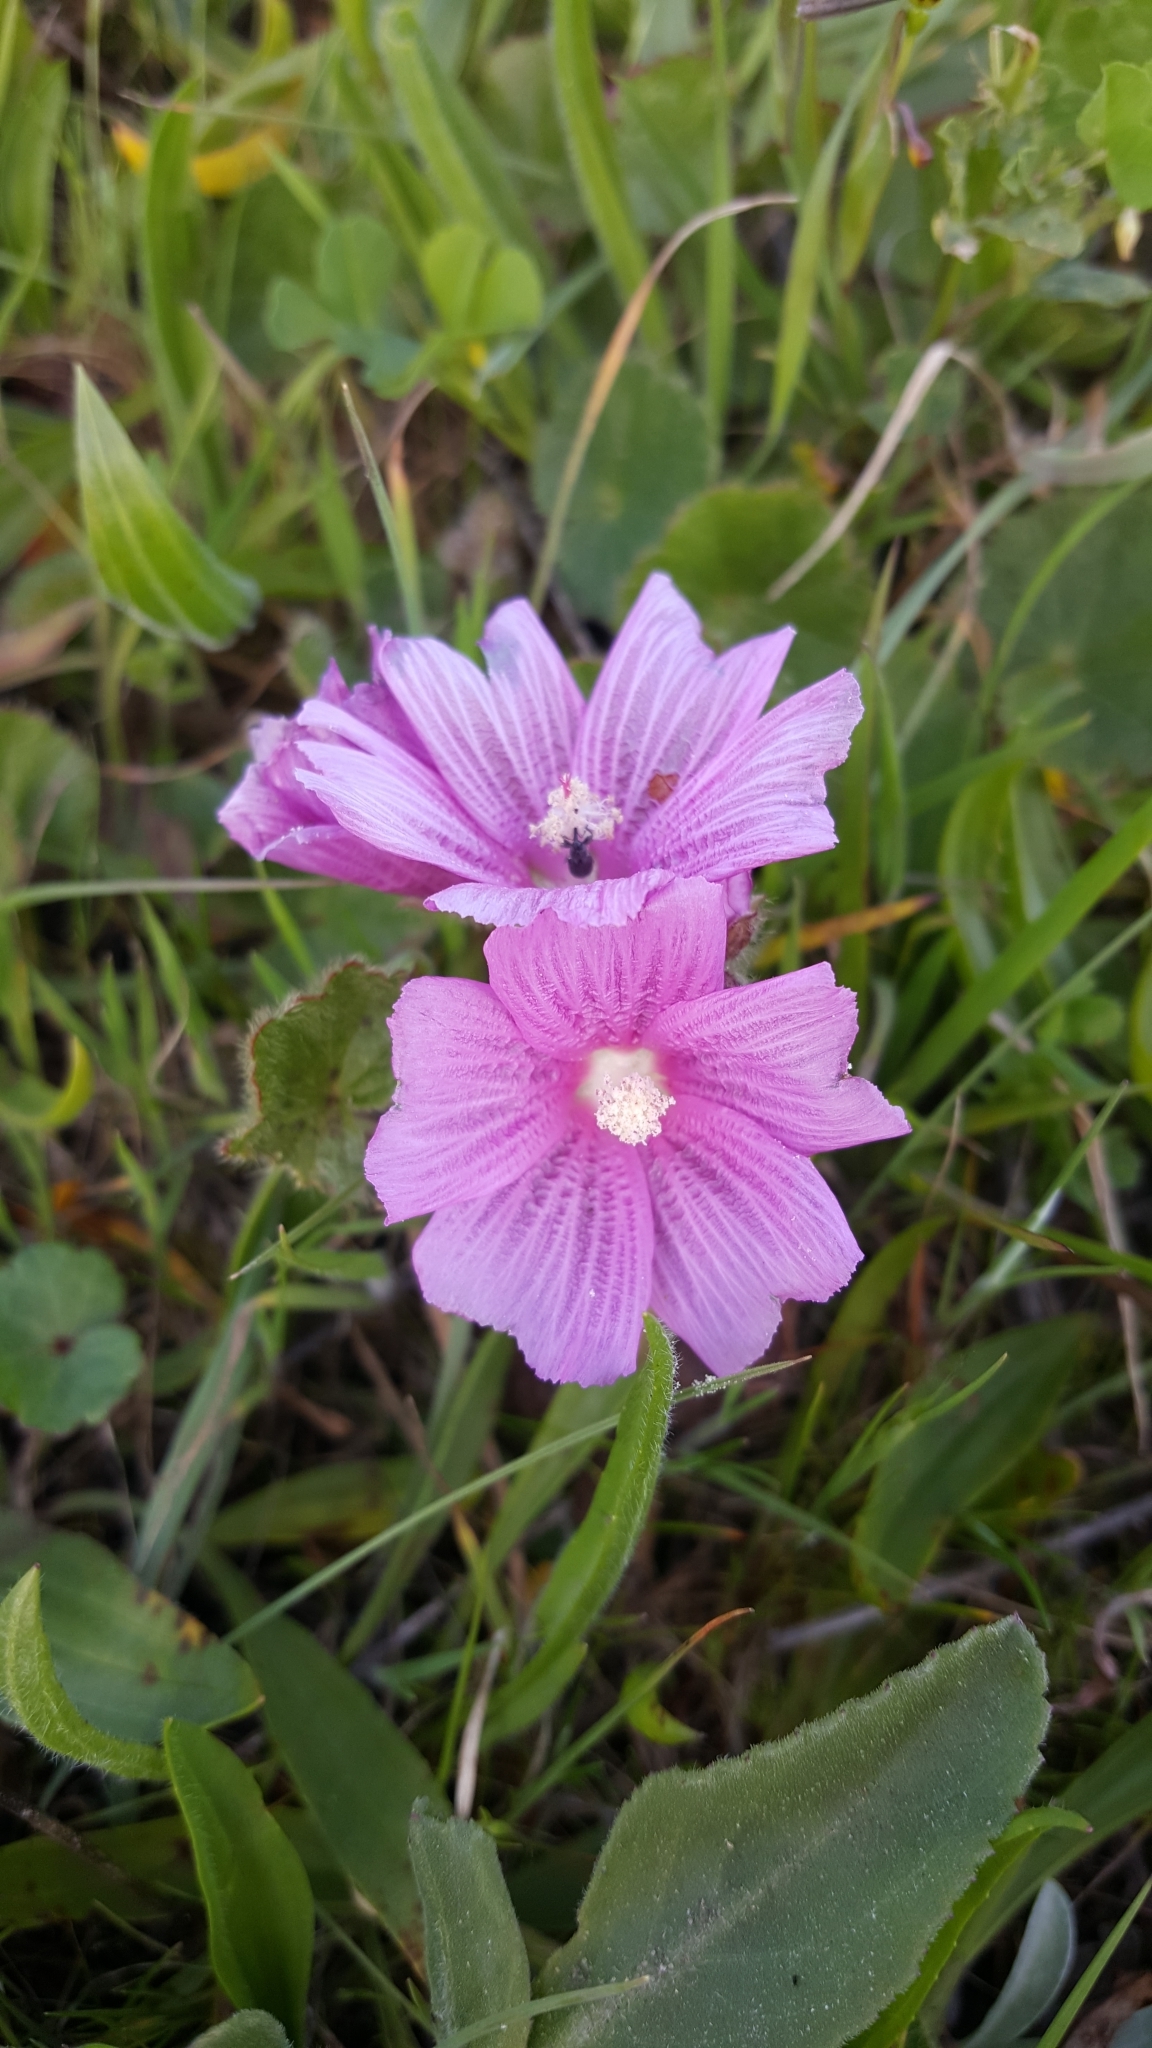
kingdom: Plantae
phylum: Tracheophyta
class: Magnoliopsida
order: Malvales
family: Malvaceae
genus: Sidalcea
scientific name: Sidalcea malviflora
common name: Greek mallow
